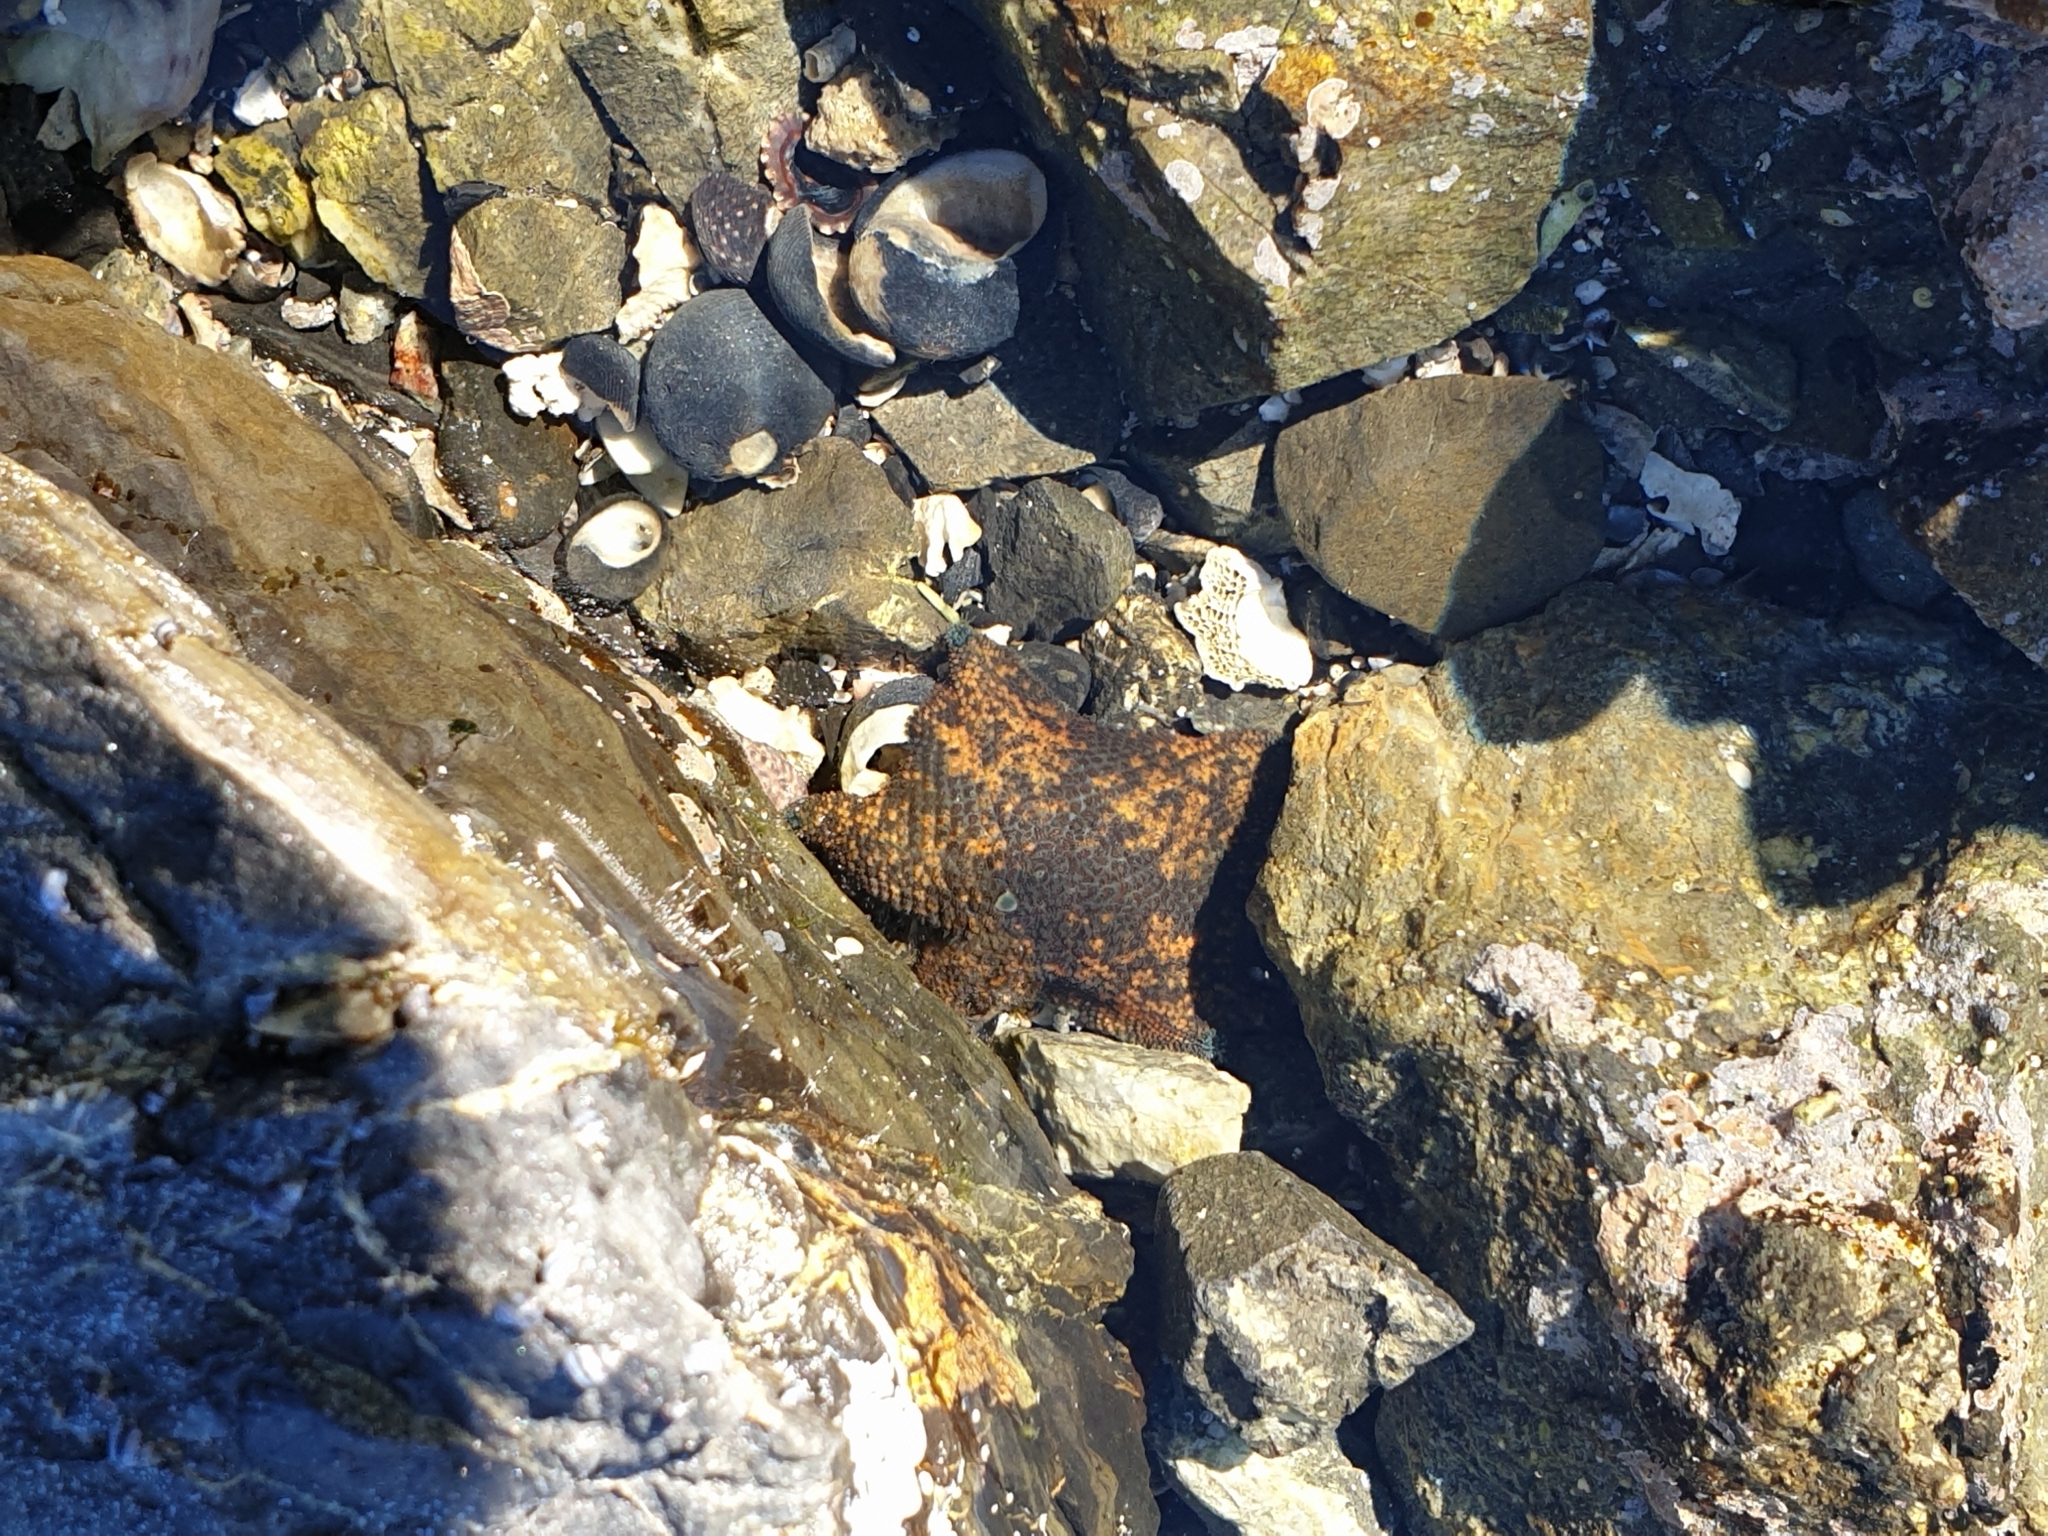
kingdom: Animalia
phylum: Echinodermata
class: Asteroidea
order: Valvatida
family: Asterinidae
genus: Patiriella
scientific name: Patiriella regularis
